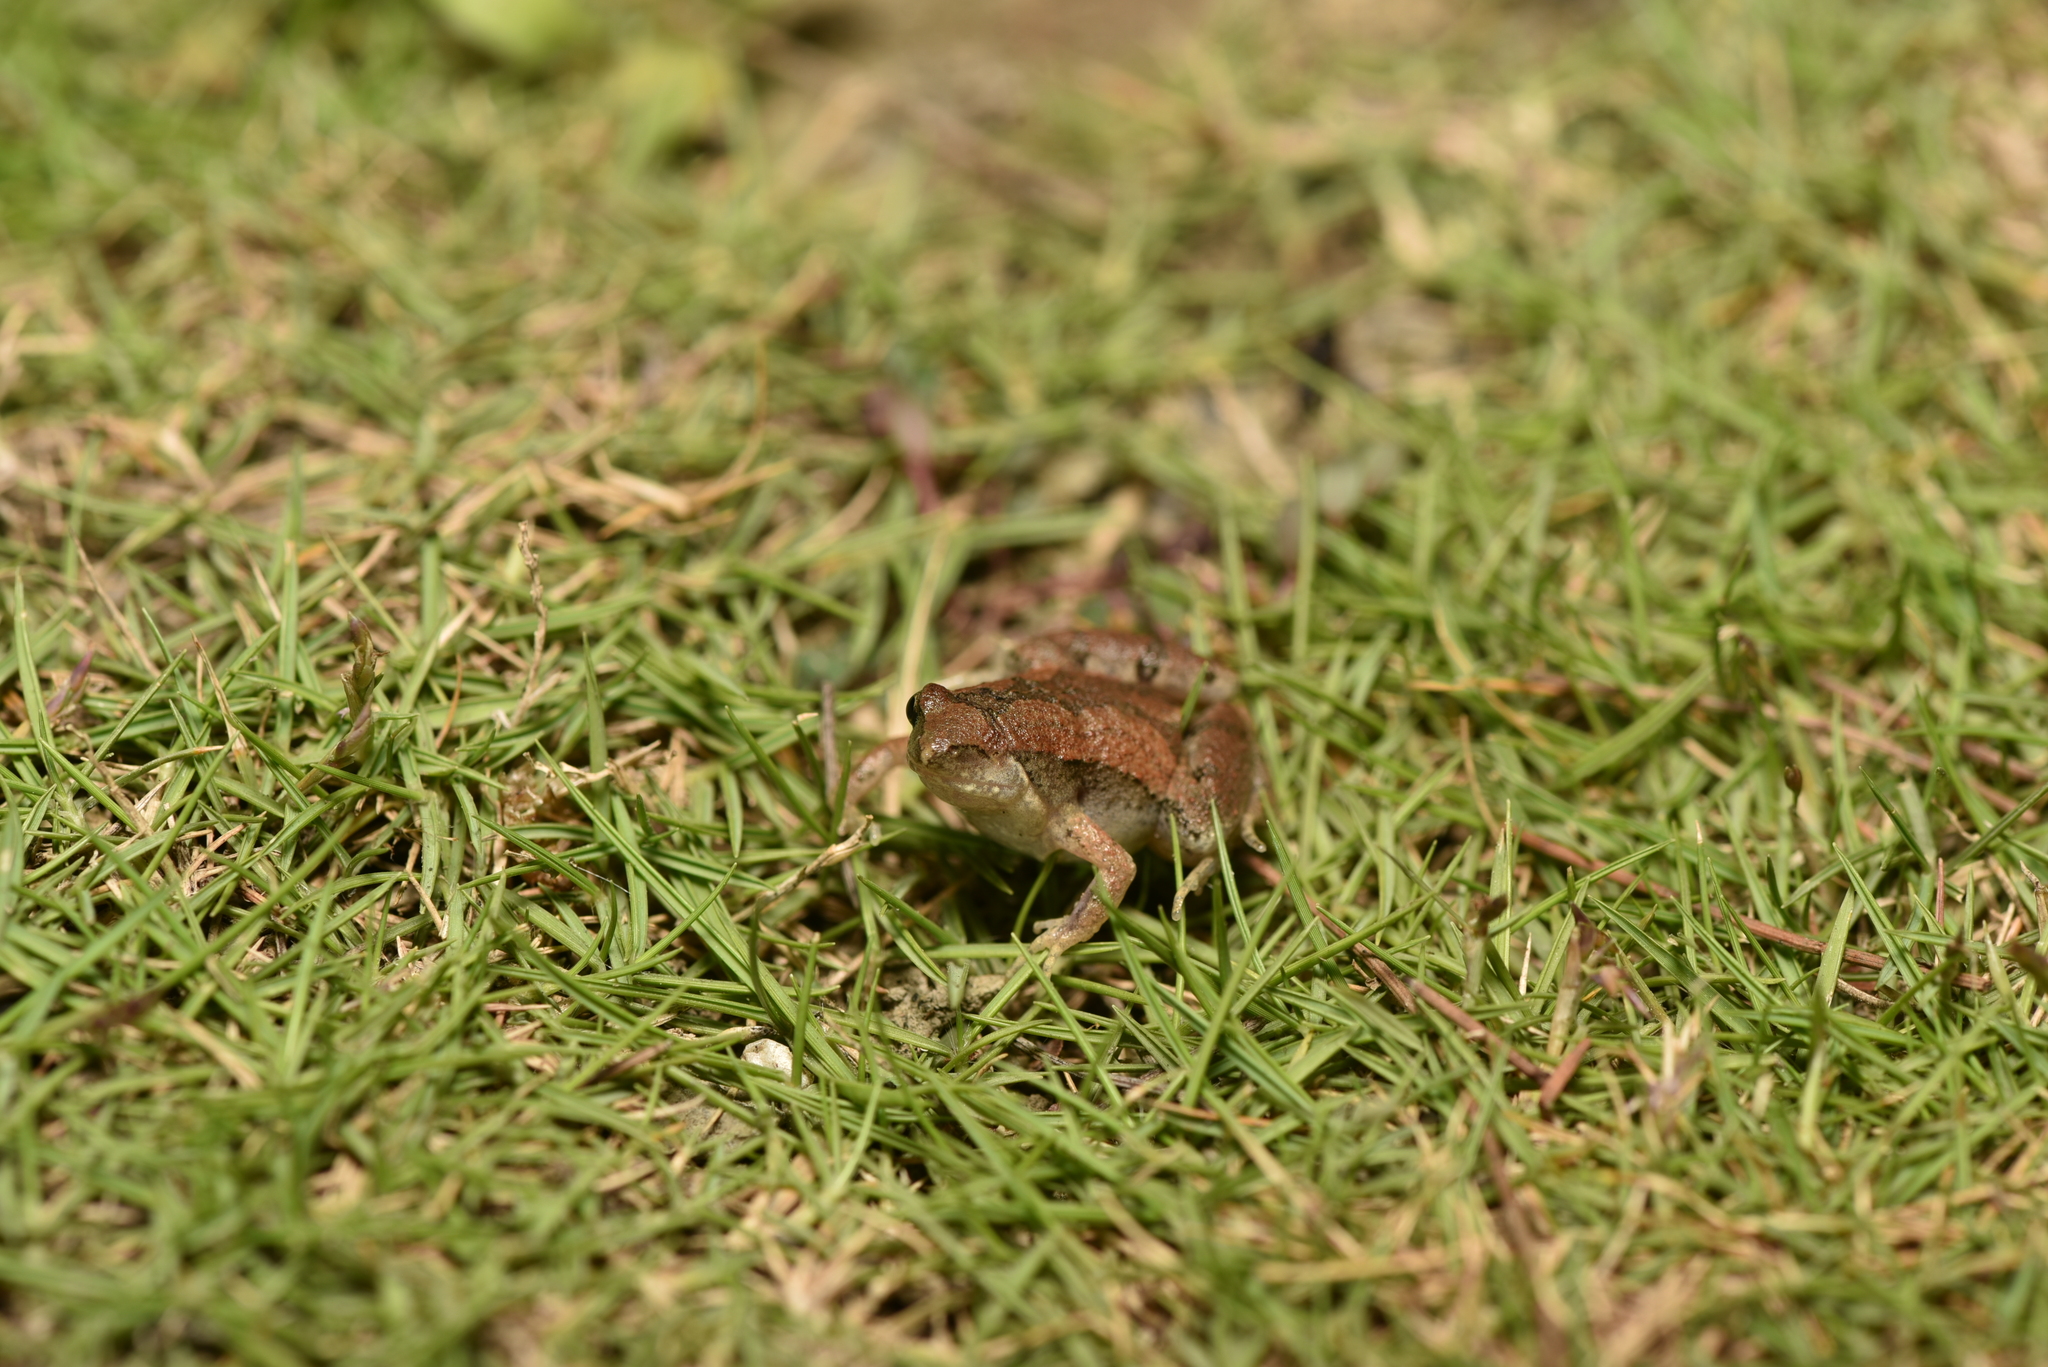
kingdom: Animalia
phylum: Chordata
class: Amphibia
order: Anura
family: Microhylidae
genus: Microhyla
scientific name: Microhyla fissipes
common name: Ornate narrow-mouthed frog
